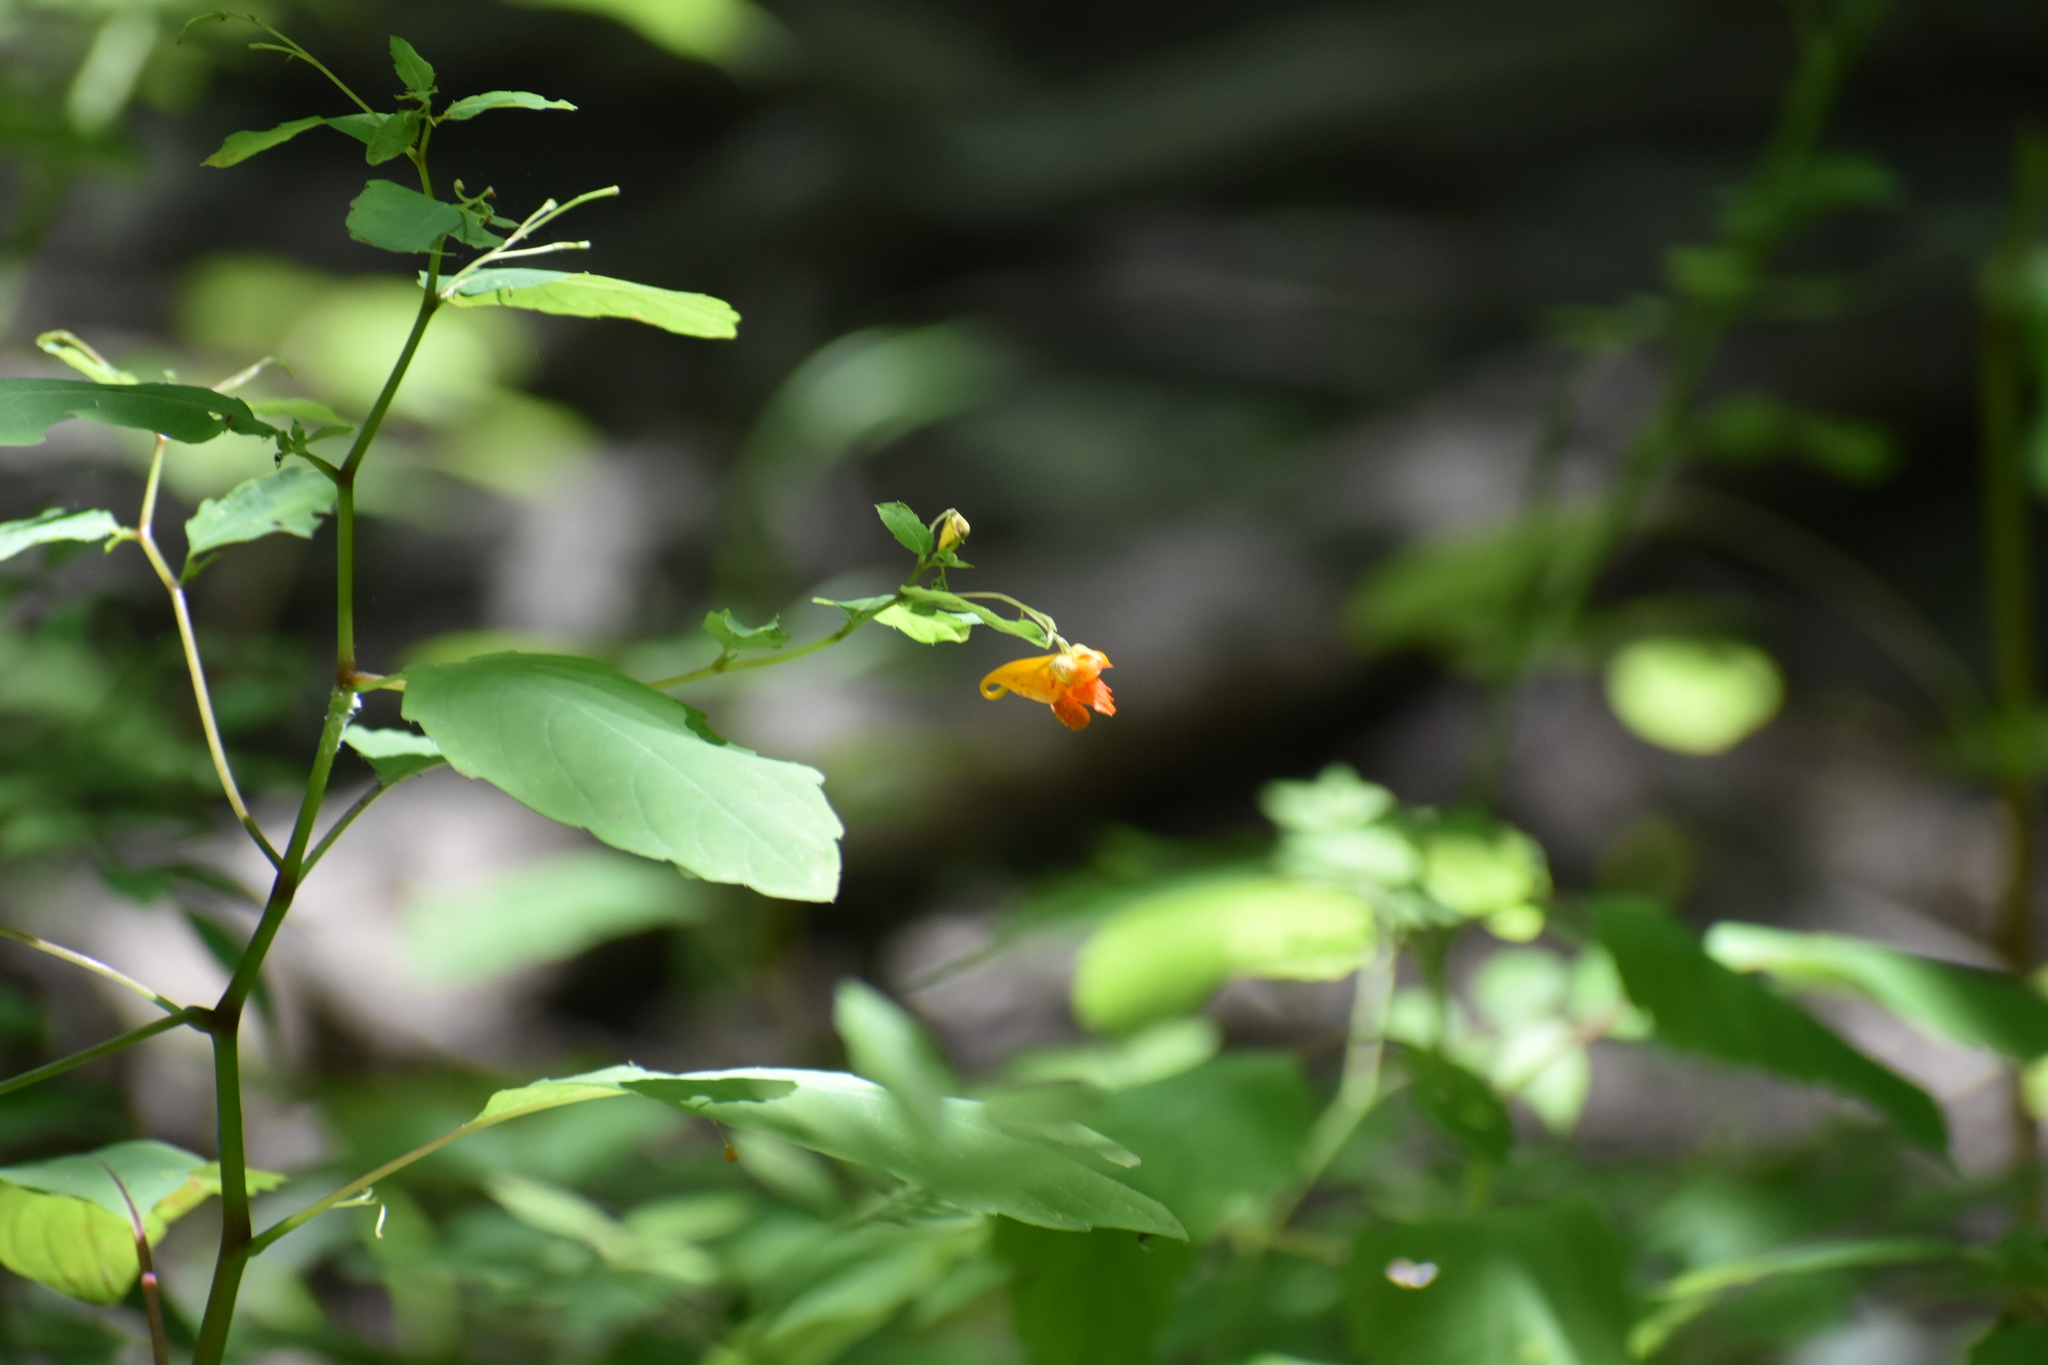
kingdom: Plantae
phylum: Tracheophyta
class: Magnoliopsida
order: Ericales
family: Balsaminaceae
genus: Impatiens
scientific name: Impatiens capensis
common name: Orange balsam
